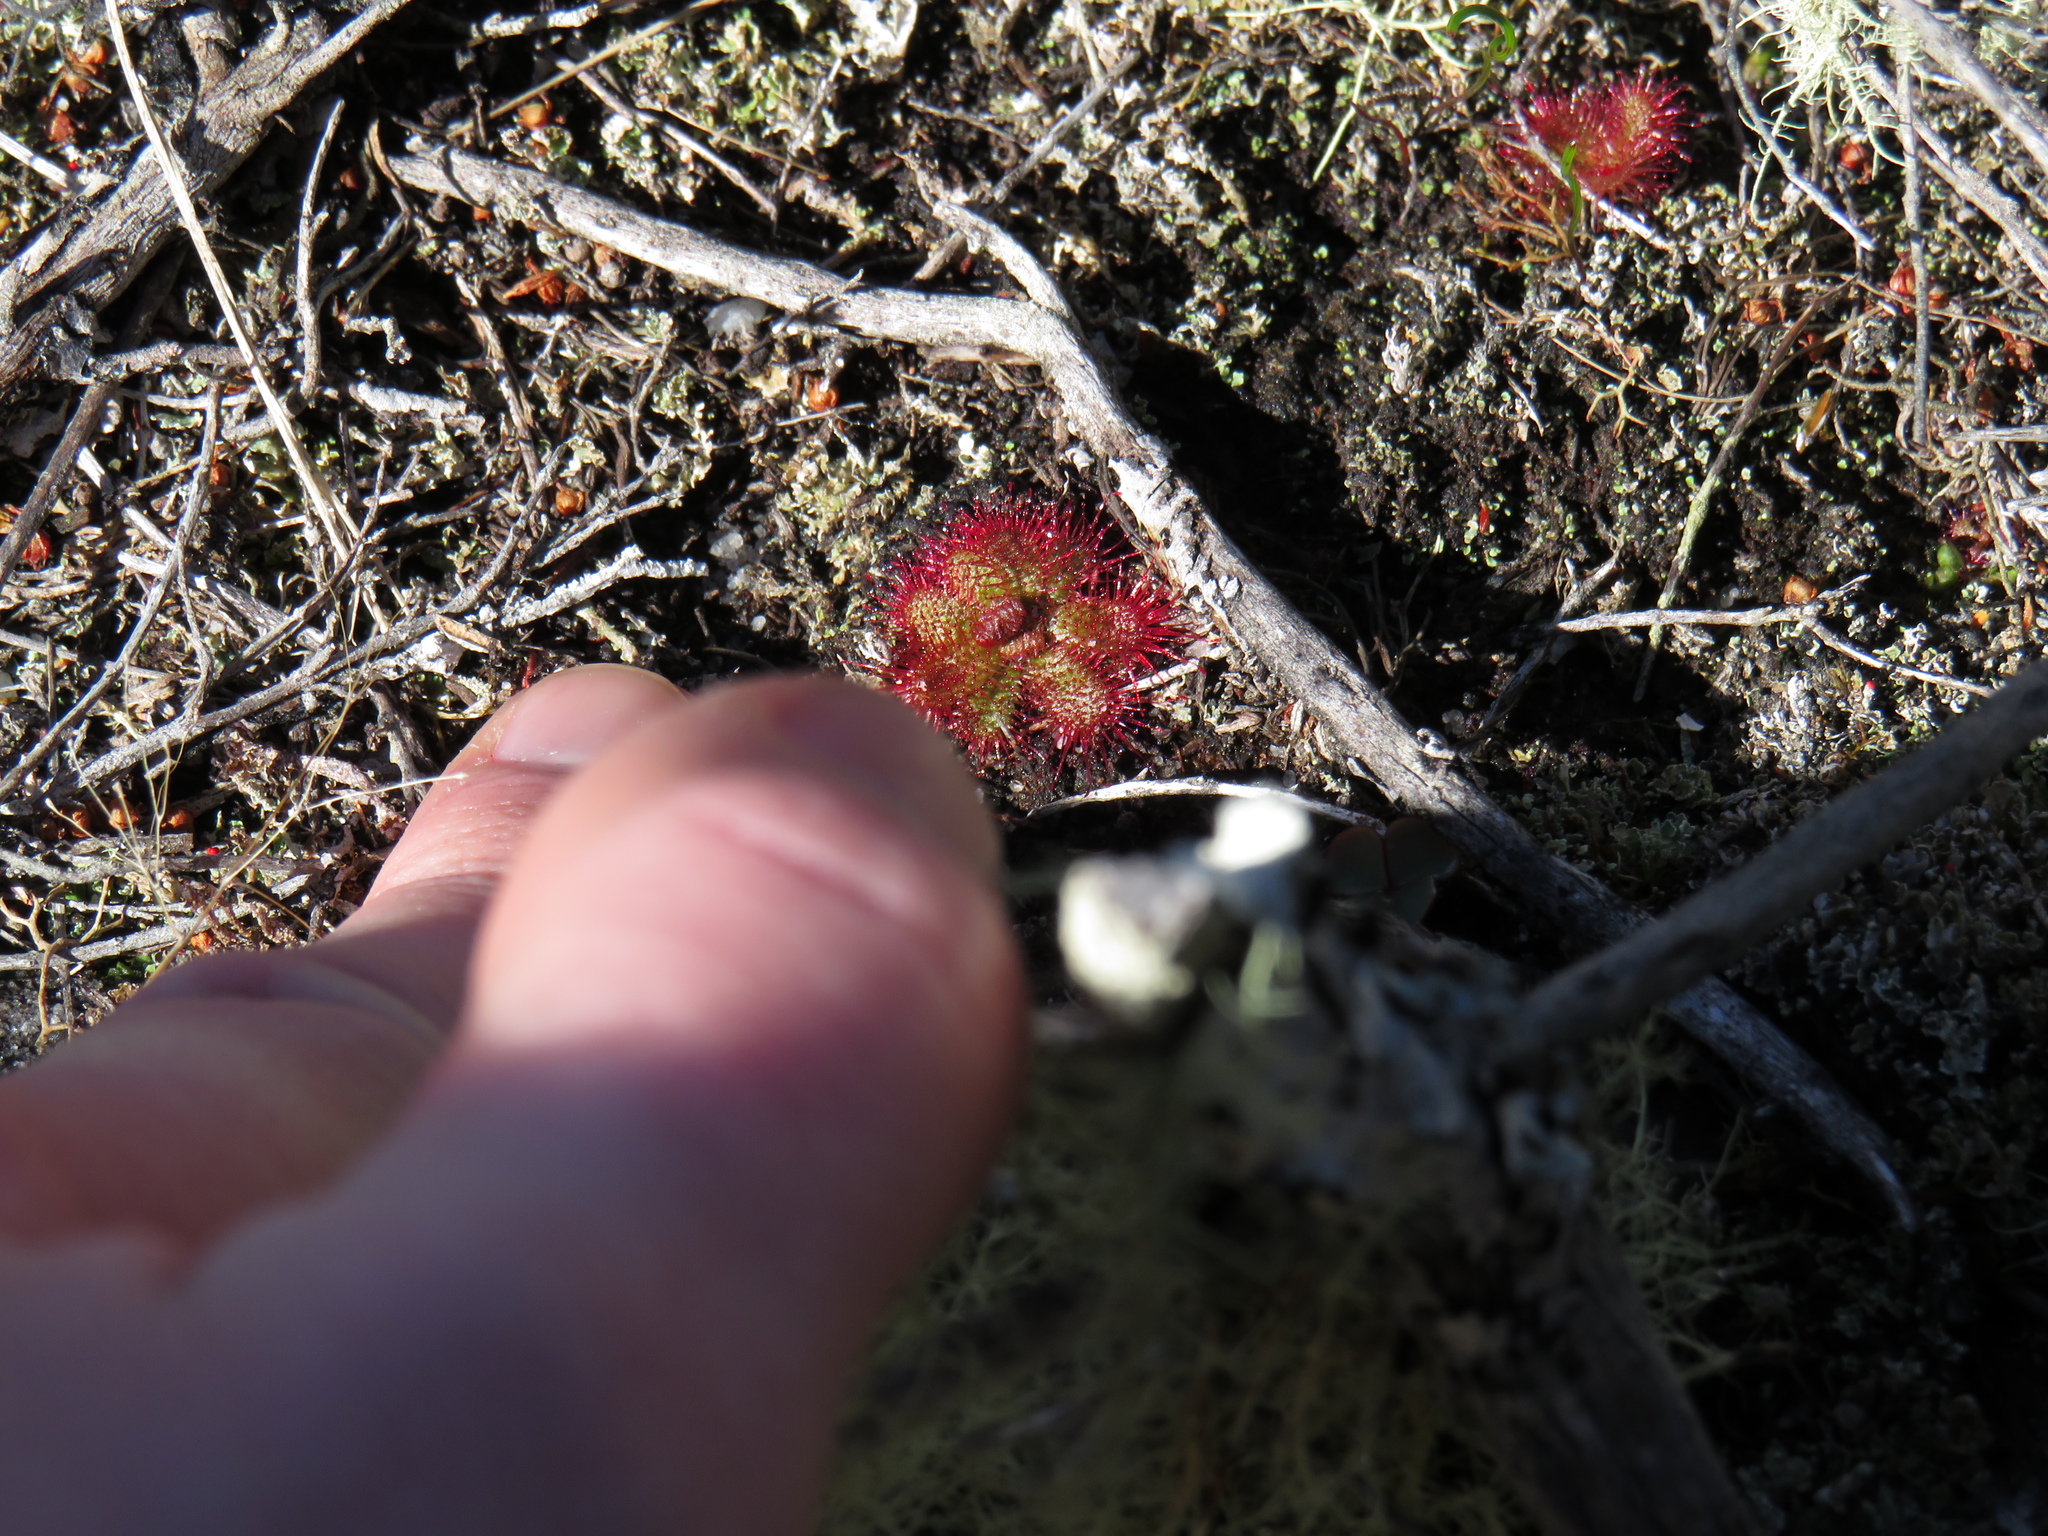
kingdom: Plantae
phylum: Tracheophyta
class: Magnoliopsida
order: Caryophyllales
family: Droseraceae
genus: Drosera
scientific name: Drosera trinervia
